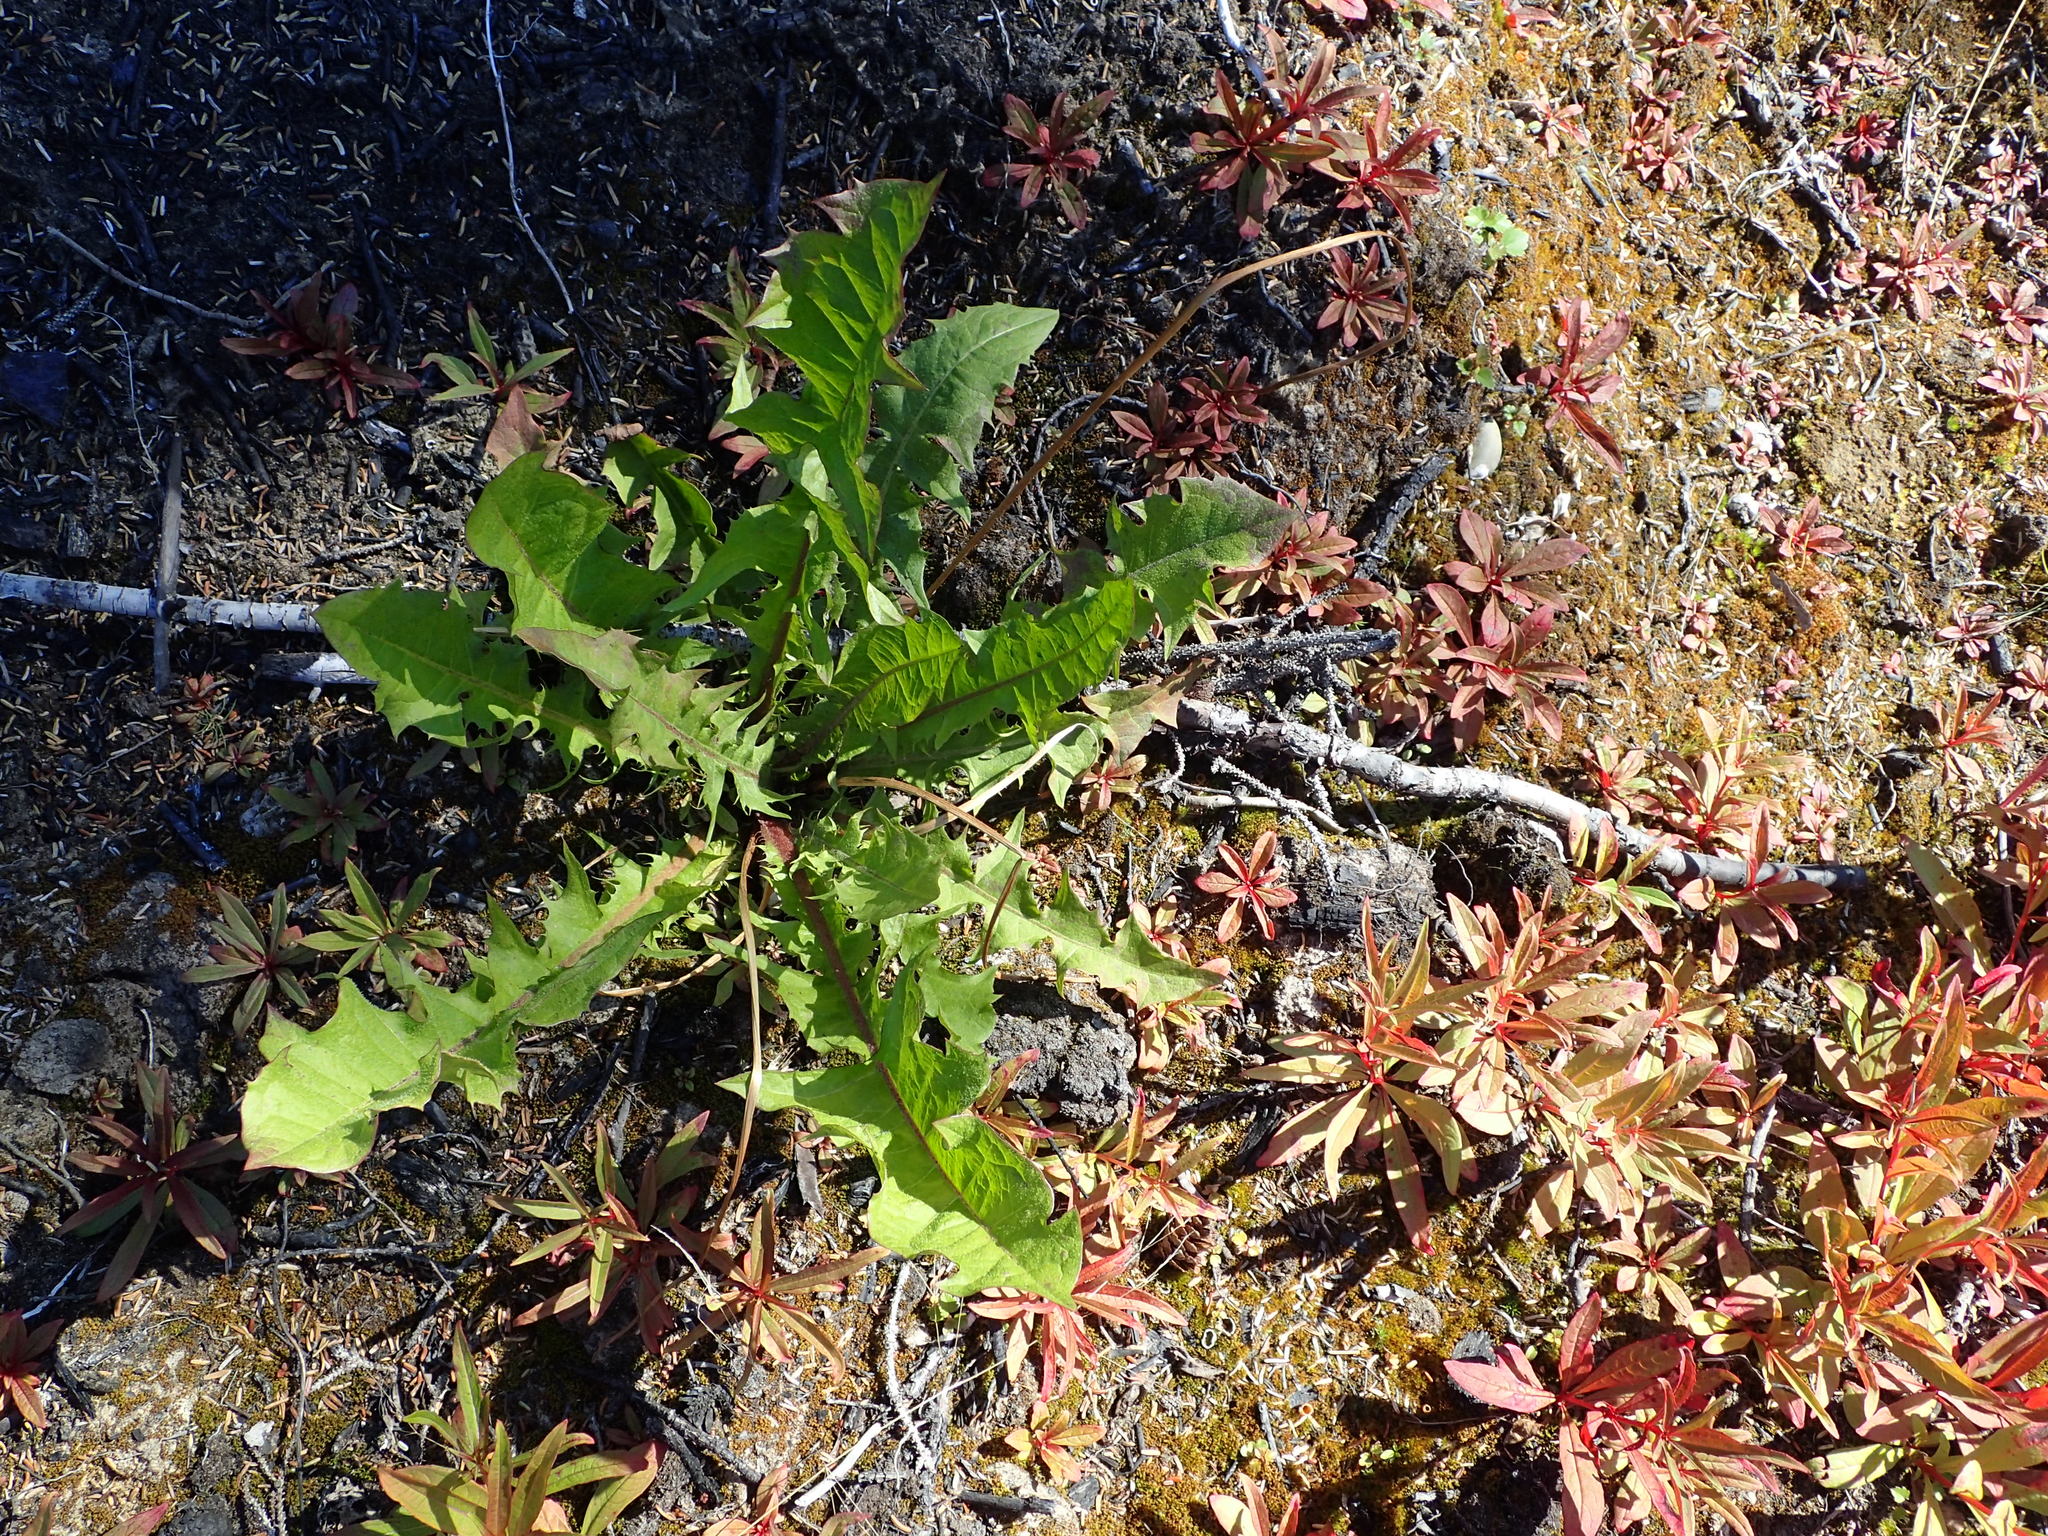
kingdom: Plantae
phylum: Tracheophyta
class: Magnoliopsida
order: Asterales
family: Asteraceae
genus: Taraxacum
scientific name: Taraxacum officinale
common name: Common dandelion
